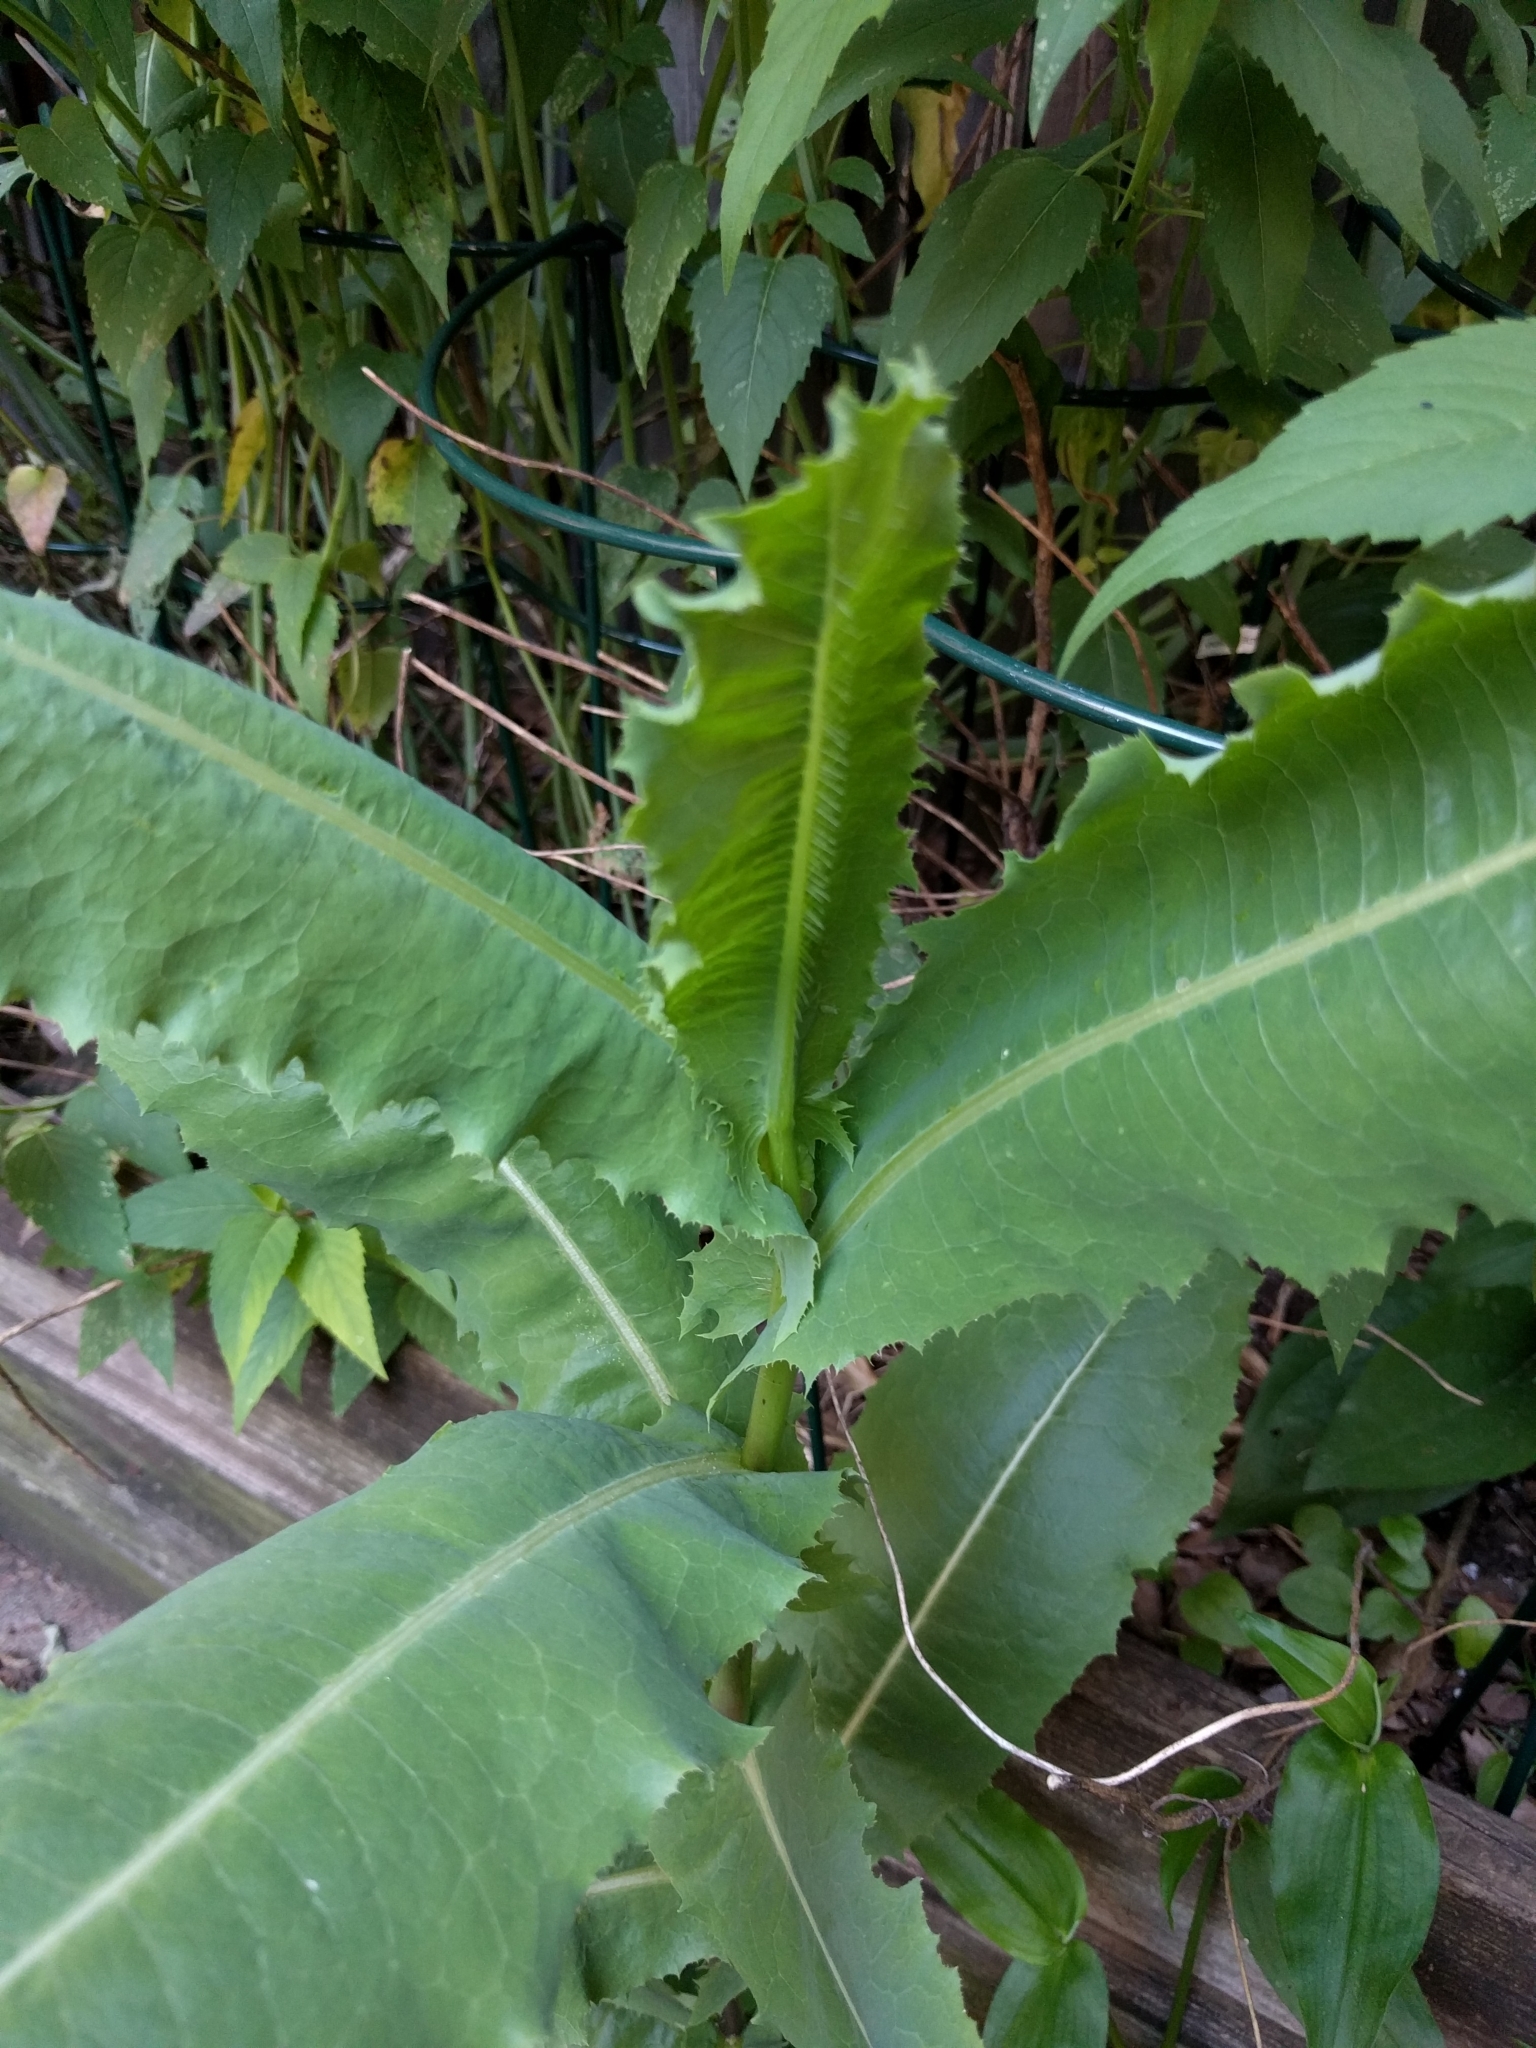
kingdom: Plantae
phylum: Tracheophyta
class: Magnoliopsida
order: Asterales
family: Asteraceae
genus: Lactuca
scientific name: Lactuca serriola
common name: Prickly lettuce
